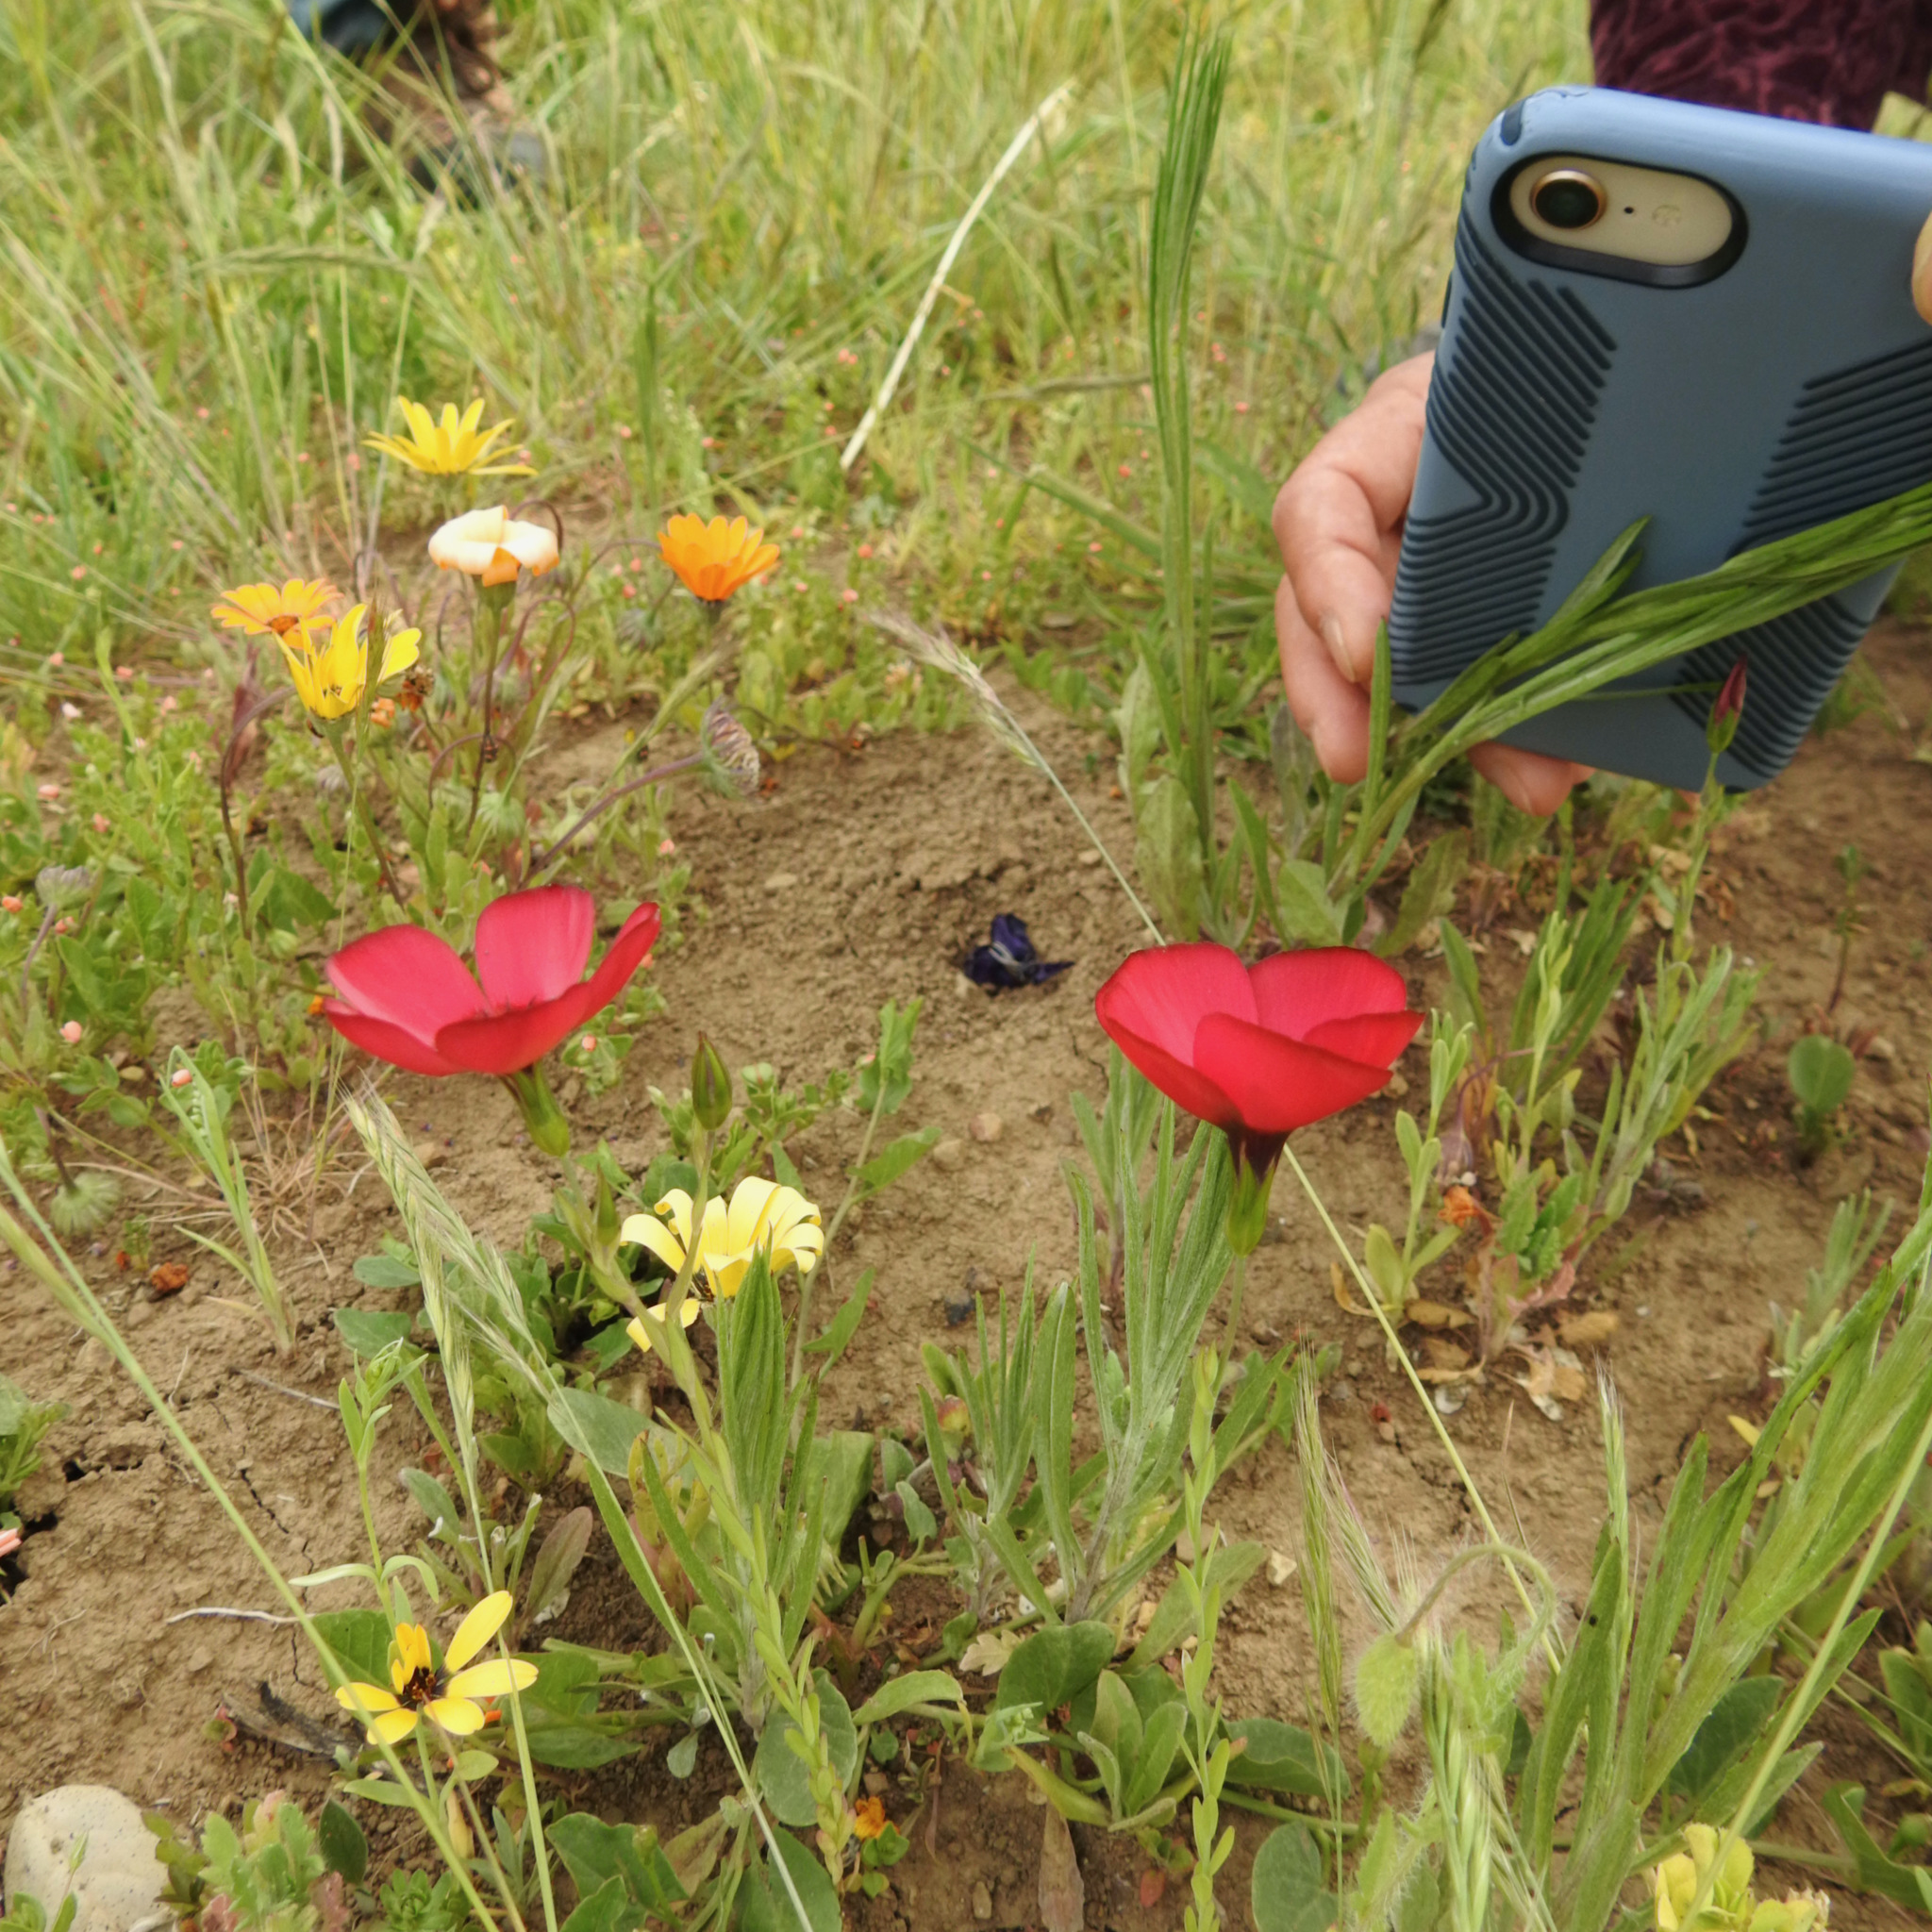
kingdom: Plantae
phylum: Tracheophyta
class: Magnoliopsida
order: Malpighiales
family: Linaceae
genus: Linum
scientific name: Linum grandiflorum
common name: Crimson flax
